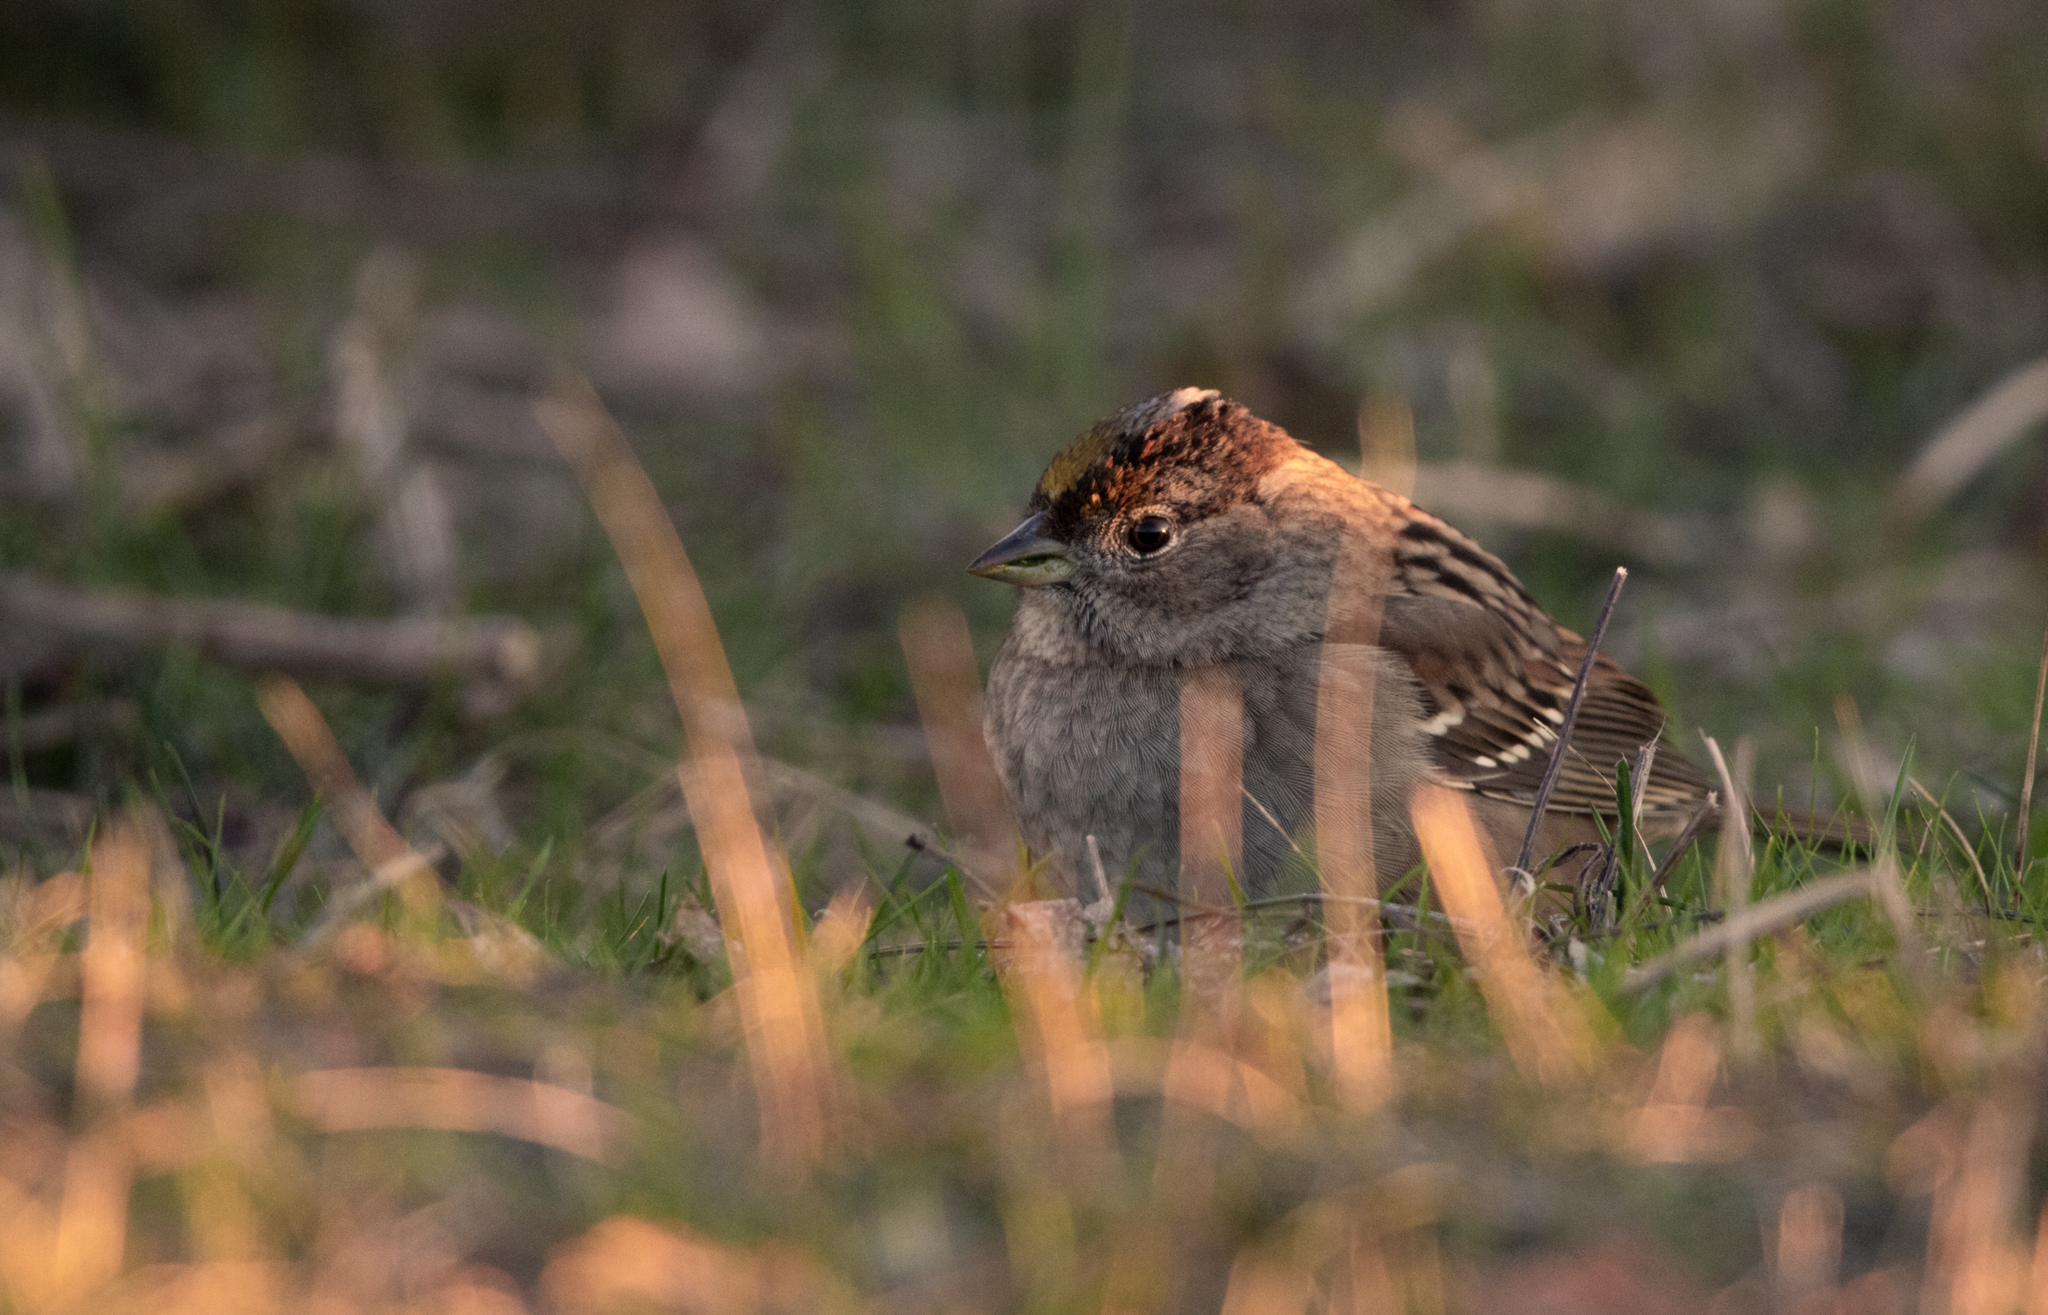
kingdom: Animalia
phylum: Chordata
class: Aves
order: Passeriformes
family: Passerellidae
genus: Zonotrichia
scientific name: Zonotrichia atricapilla
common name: Golden-crowned sparrow
